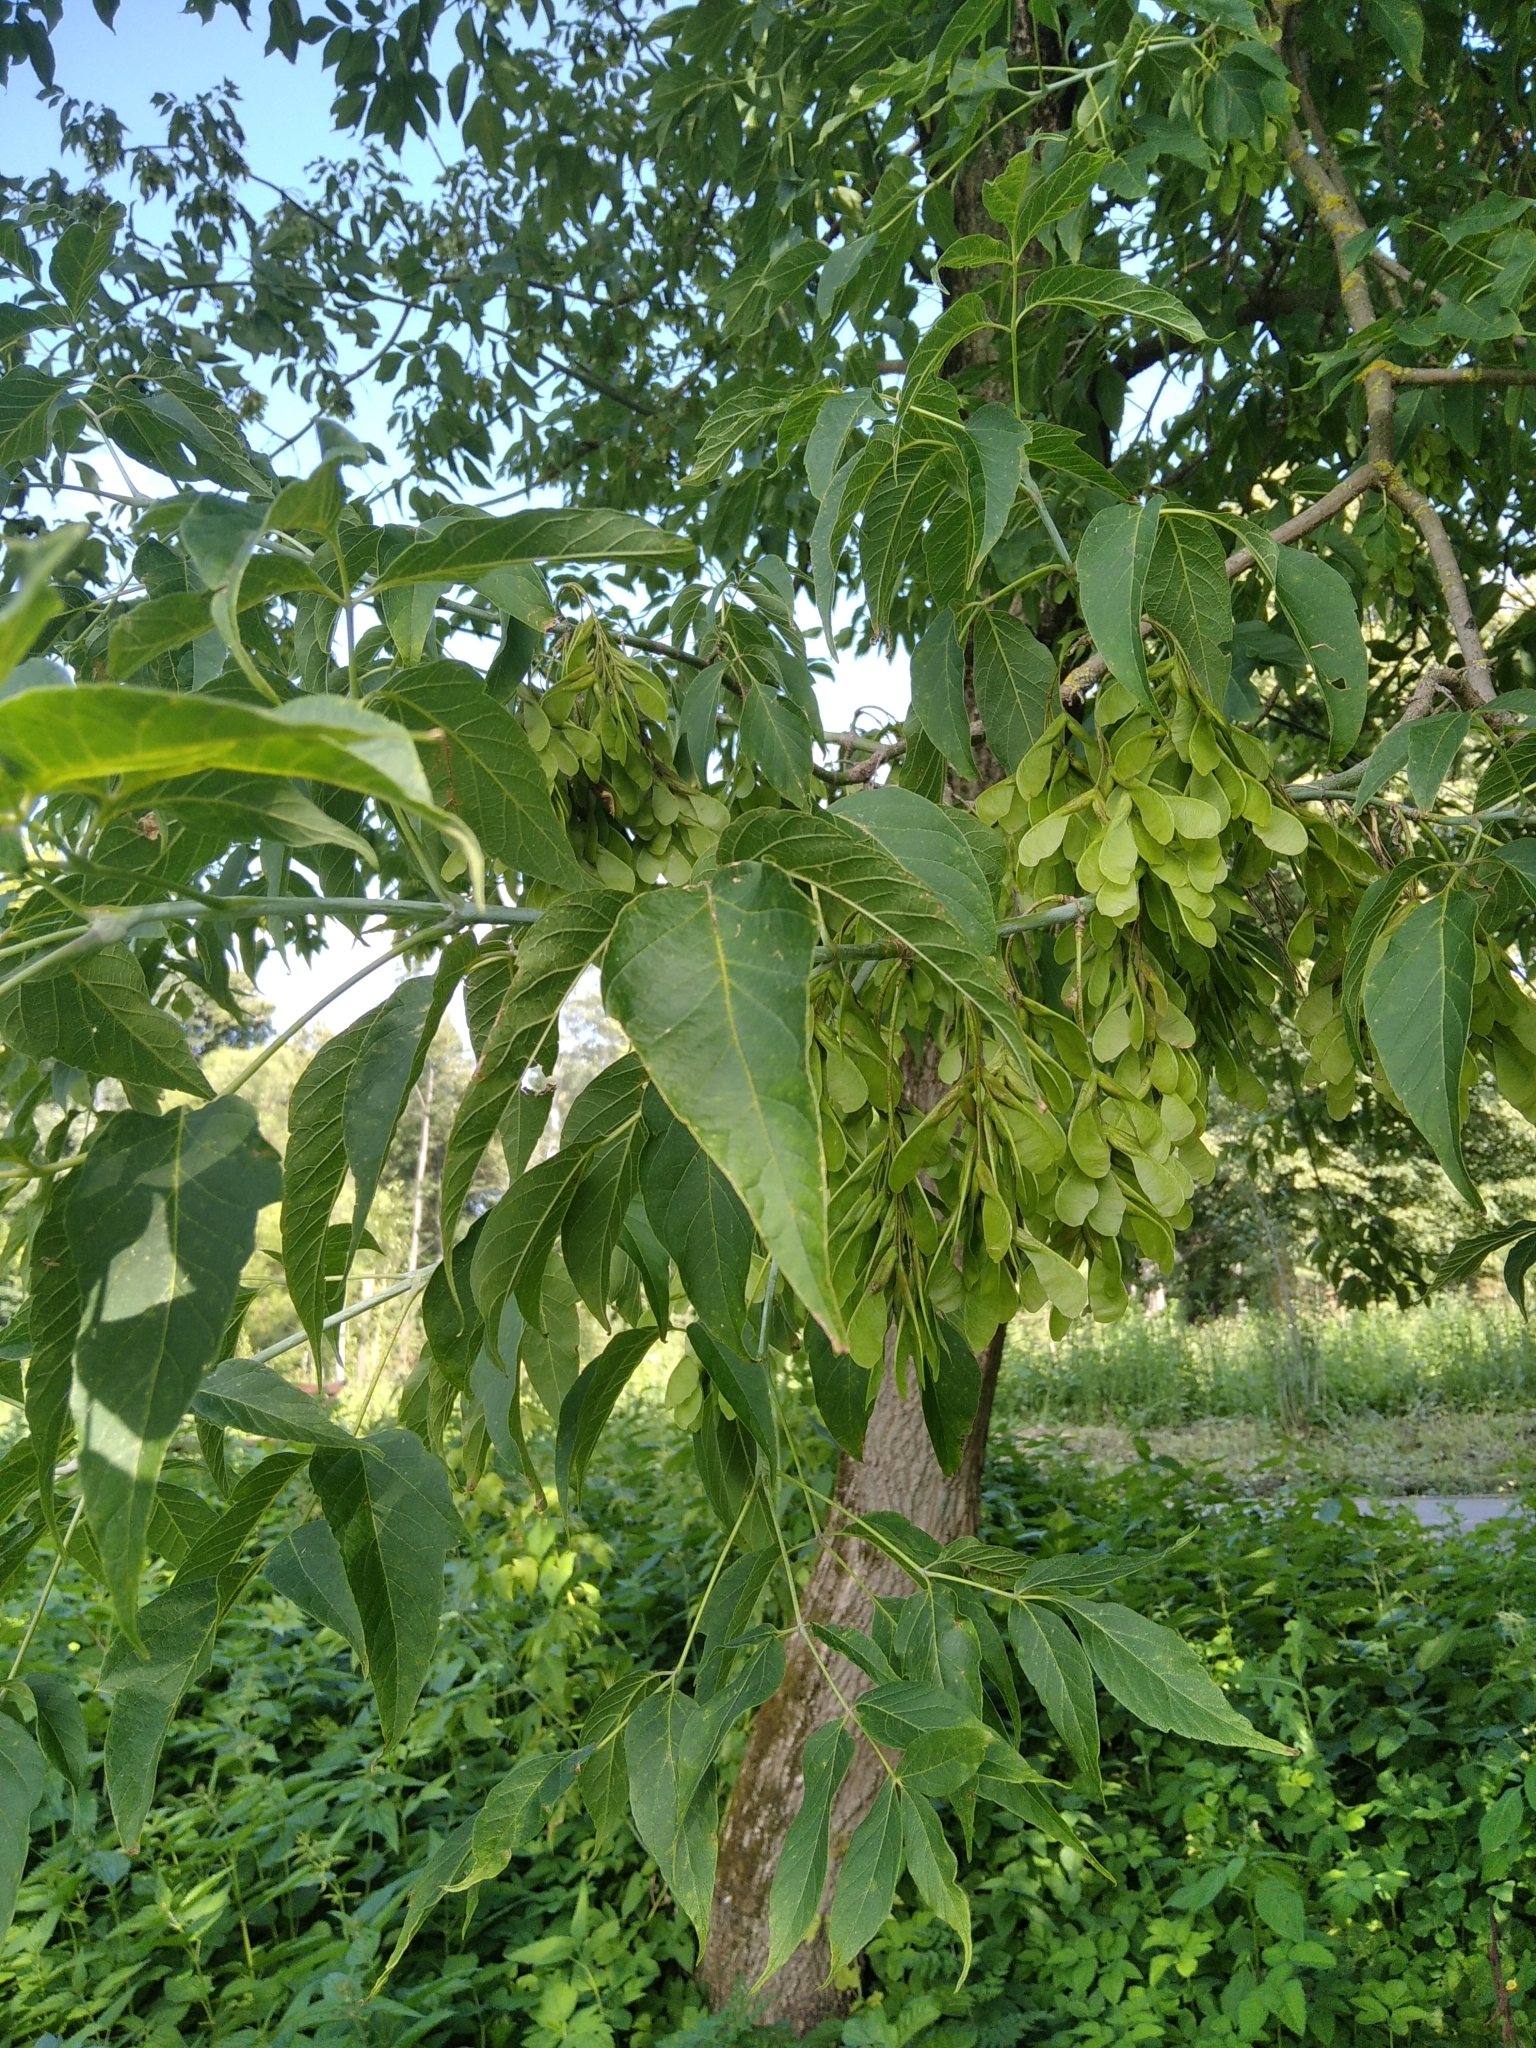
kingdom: Plantae
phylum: Tracheophyta
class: Magnoliopsida
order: Sapindales
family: Sapindaceae
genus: Acer
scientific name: Acer negundo
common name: Ashleaf maple
